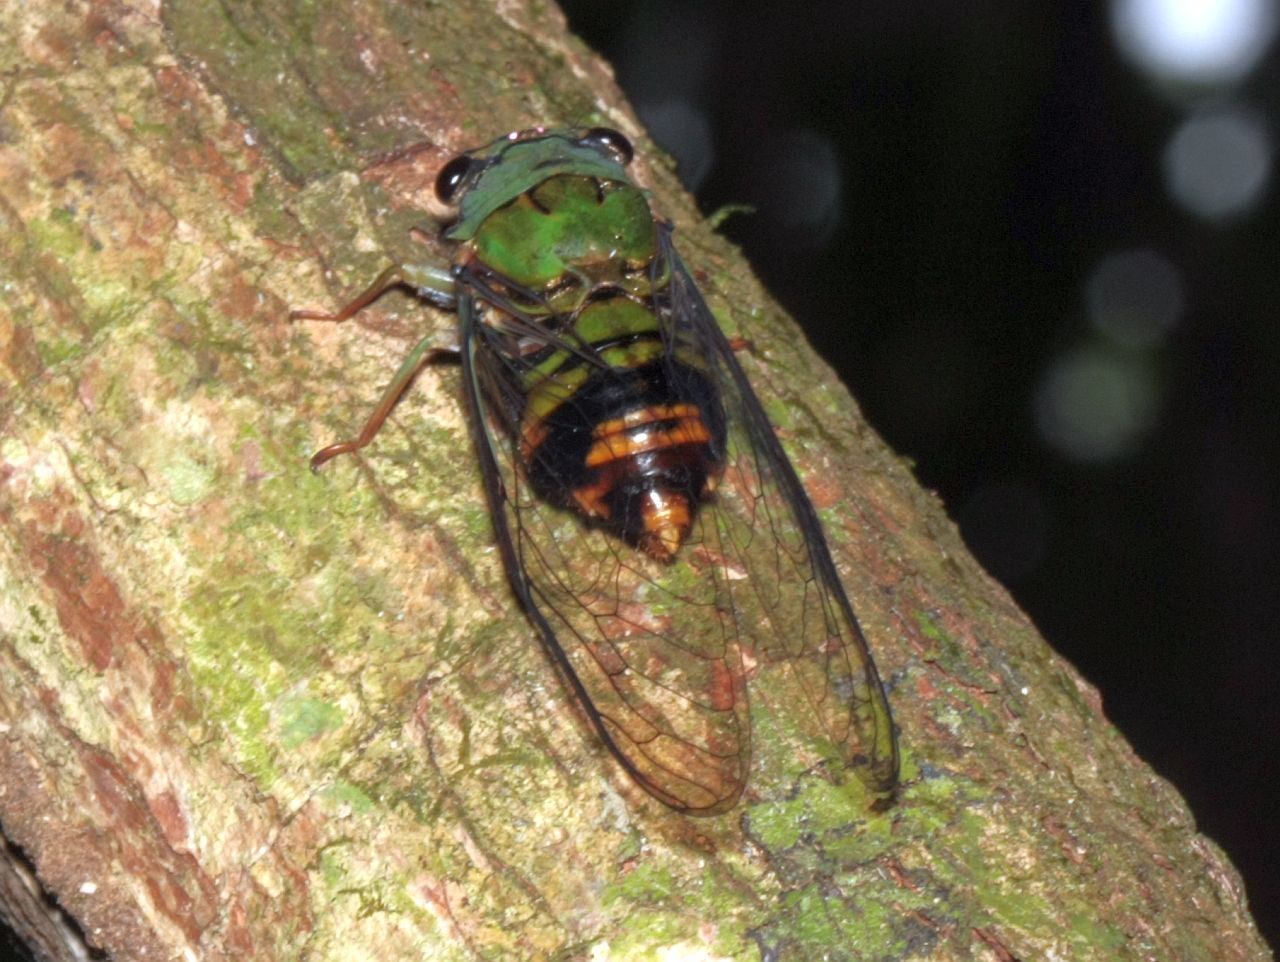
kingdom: Animalia
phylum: Arthropoda
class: Insecta
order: Hemiptera
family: Cicadidae
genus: Guyalna
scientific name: Guyalna distanti
